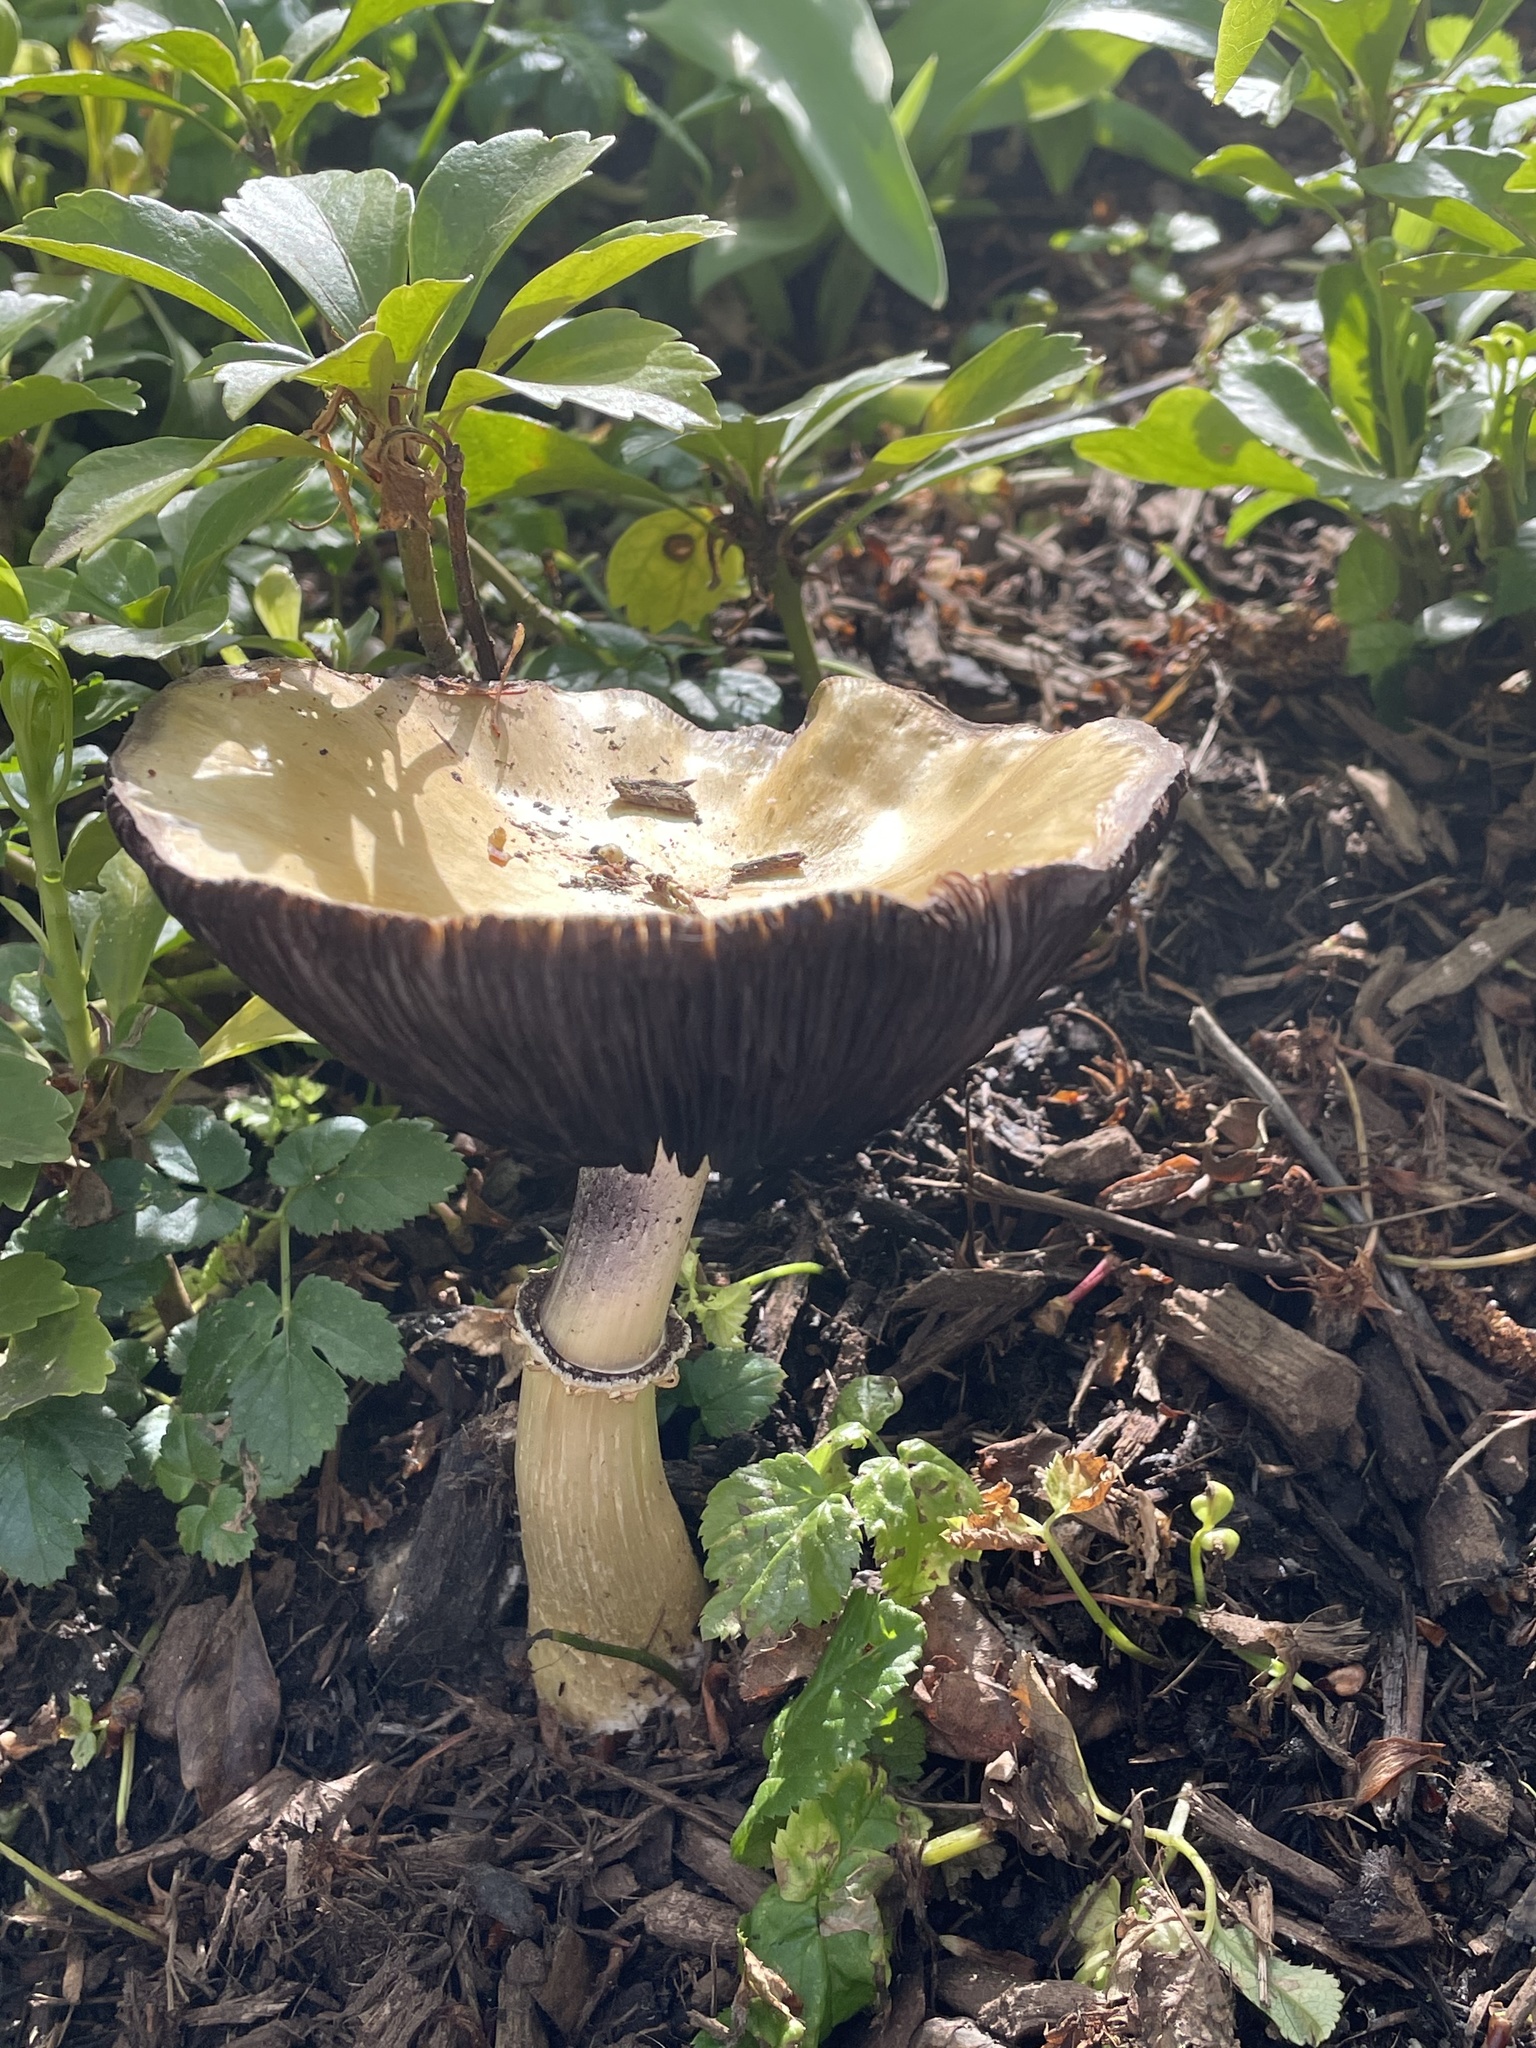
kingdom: Fungi
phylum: Basidiomycota
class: Agaricomycetes
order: Agaricales
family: Strophariaceae
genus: Stropharia
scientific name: Stropharia rugosoannulata
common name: Wine roundhead
